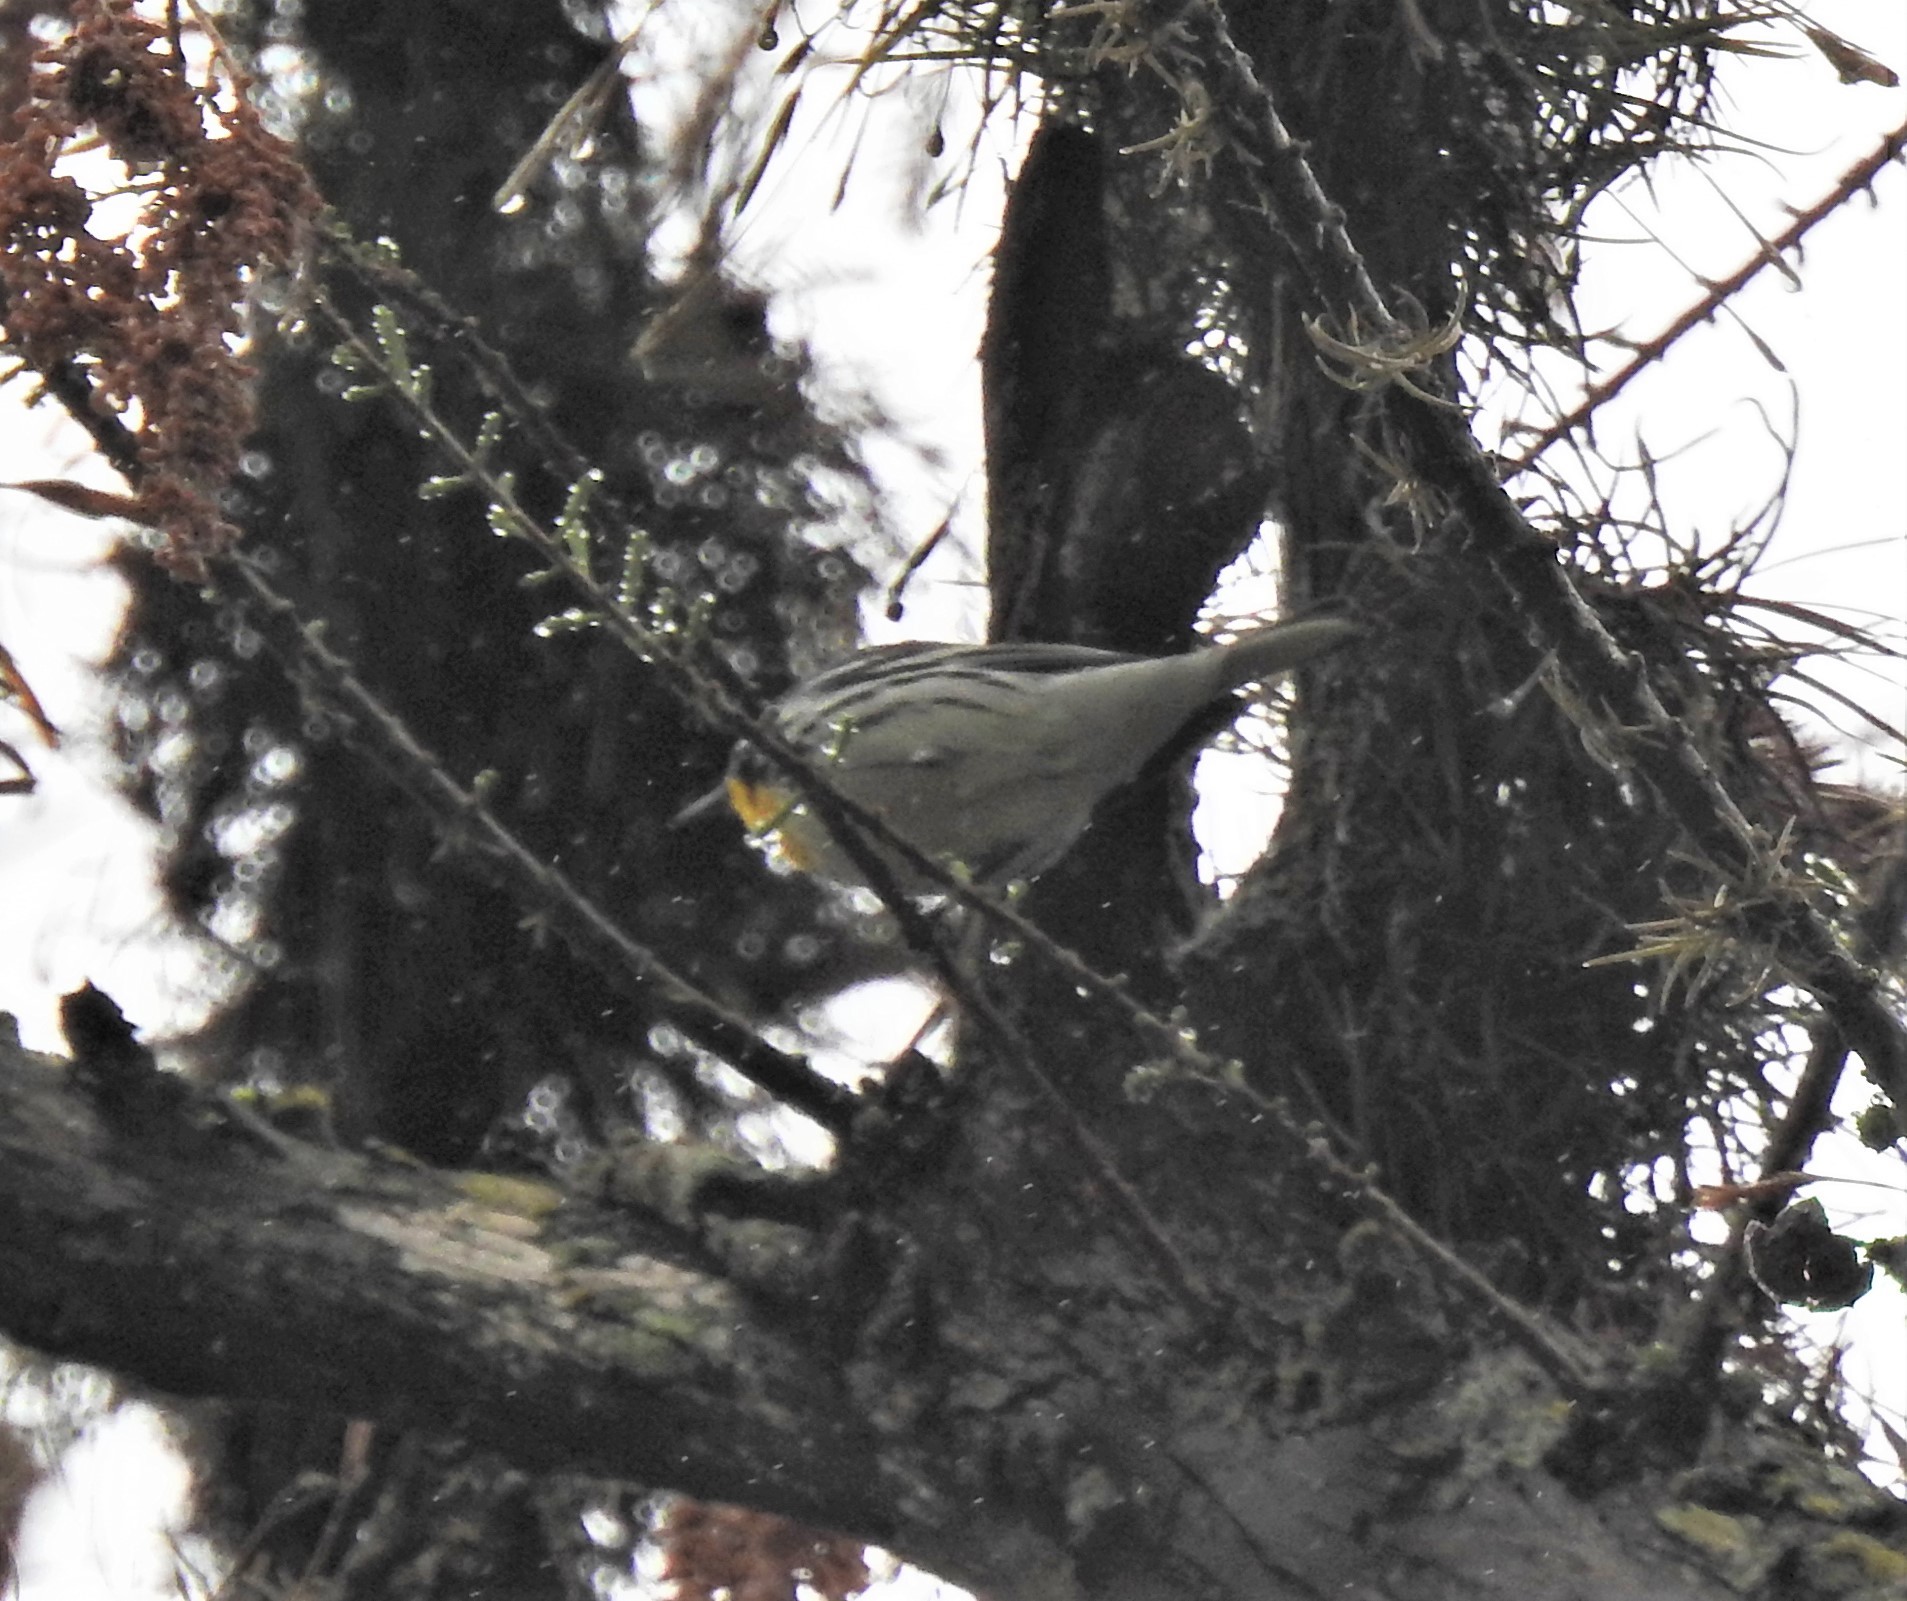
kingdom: Animalia
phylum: Chordata
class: Aves
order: Passeriformes
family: Parulidae
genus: Setophaga
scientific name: Setophaga dominica
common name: Yellow-throated warbler
